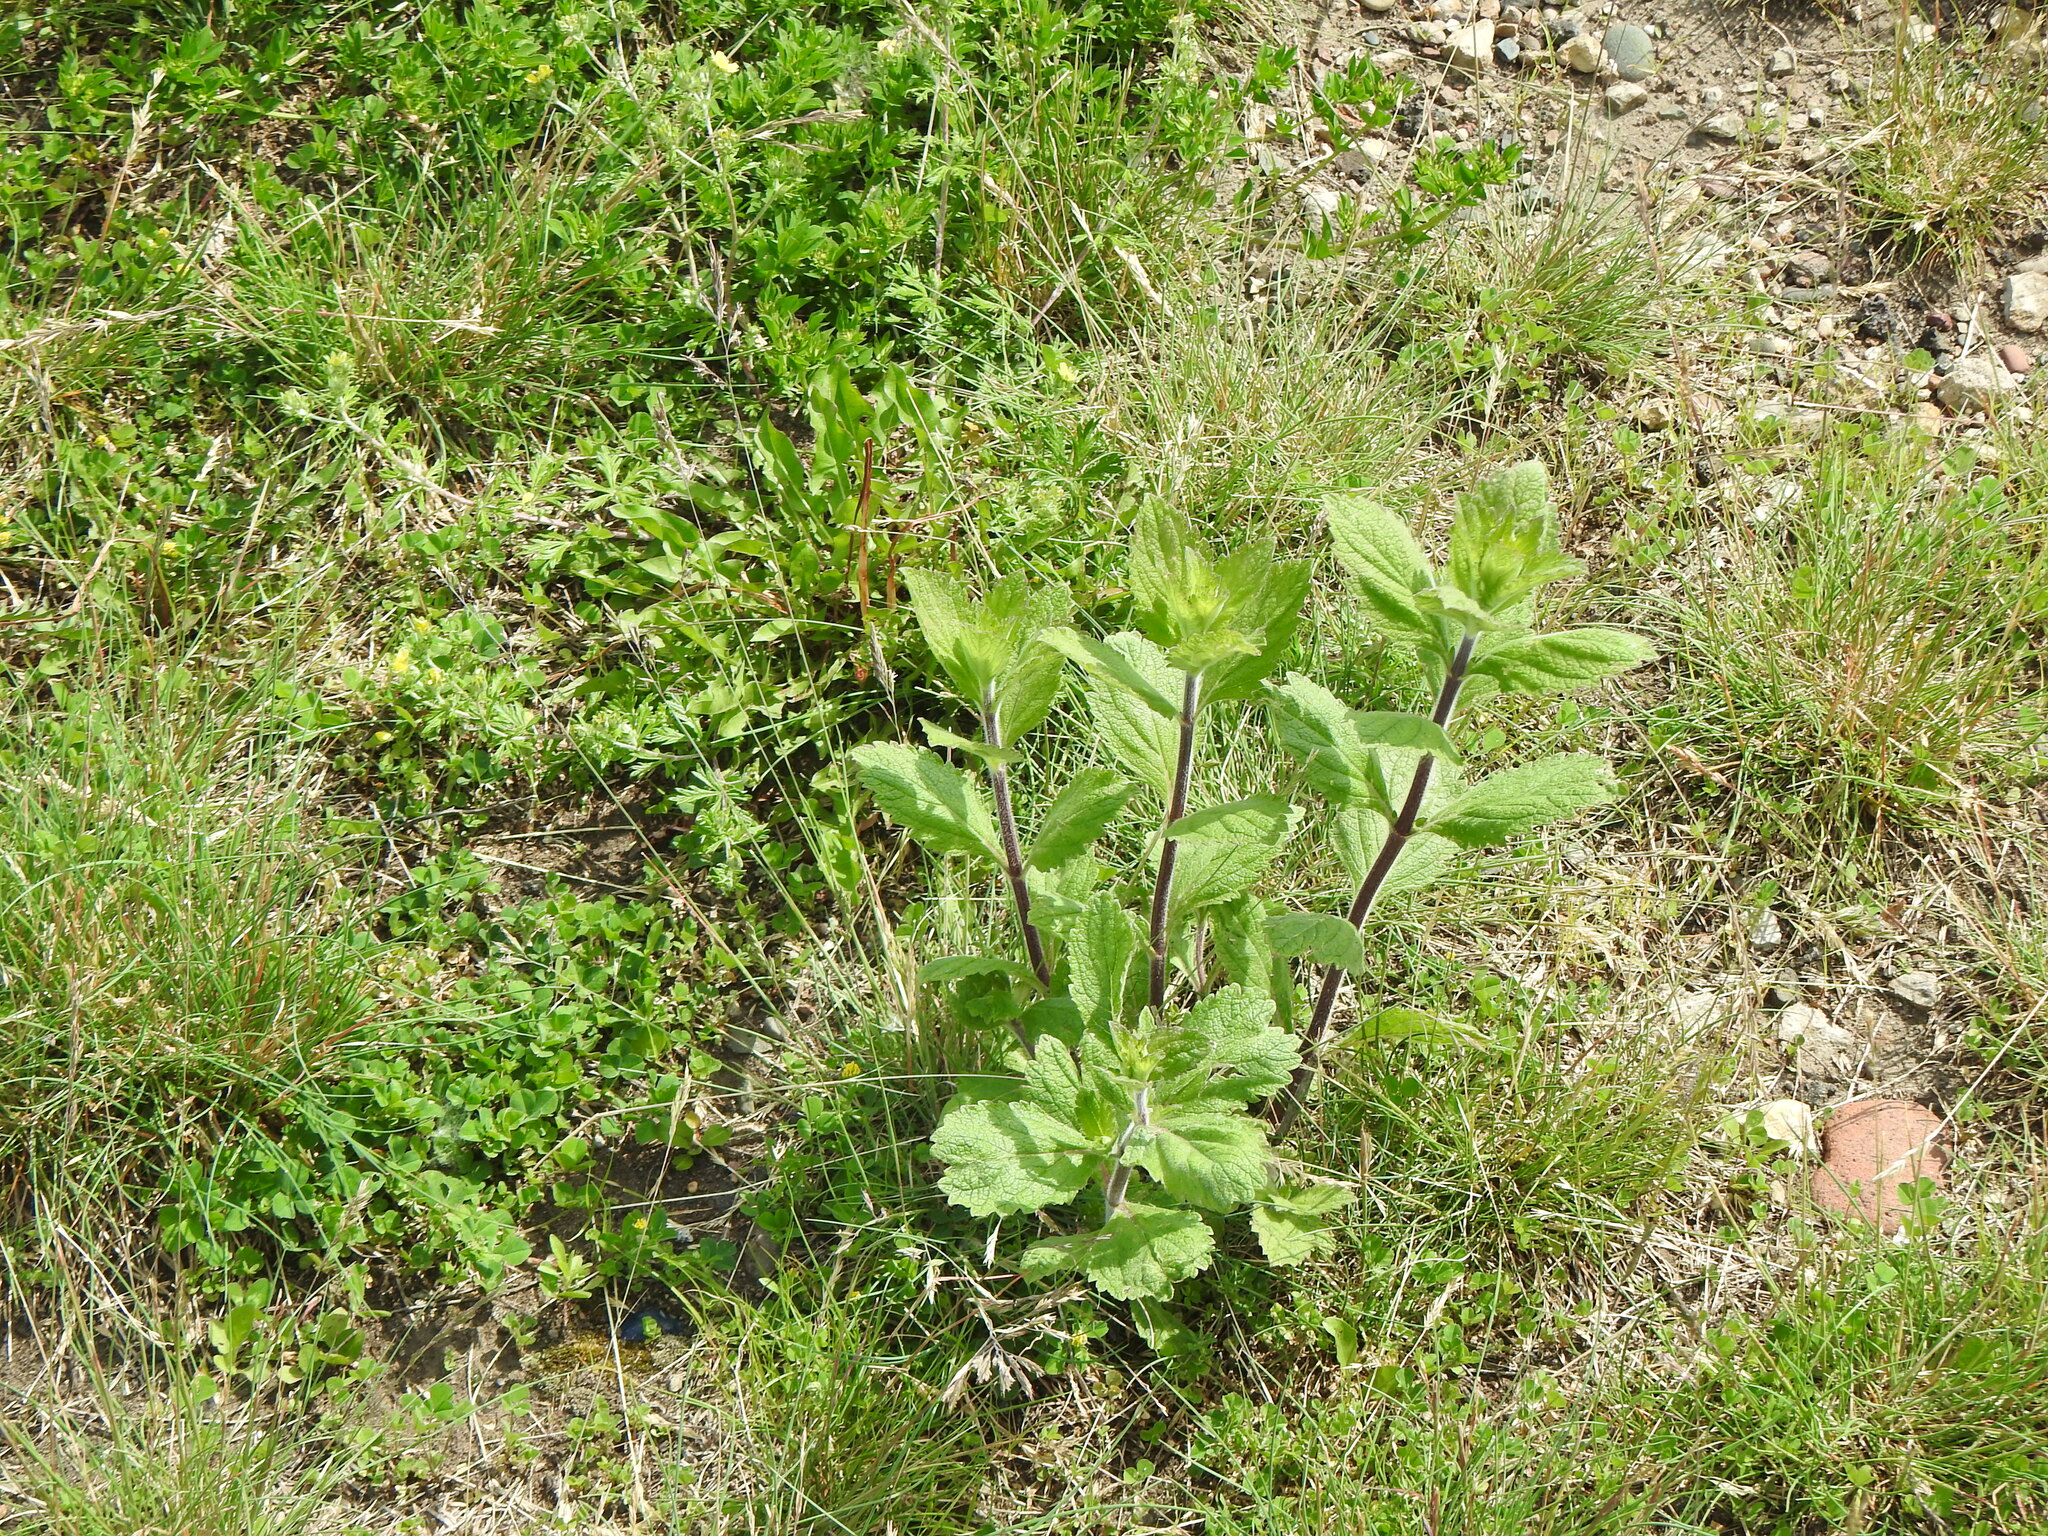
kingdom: Plantae
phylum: Tracheophyta
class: Magnoliopsida
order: Lamiales
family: Verbenaceae
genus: Verbena
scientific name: Verbena stricta
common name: Hoary vervain
